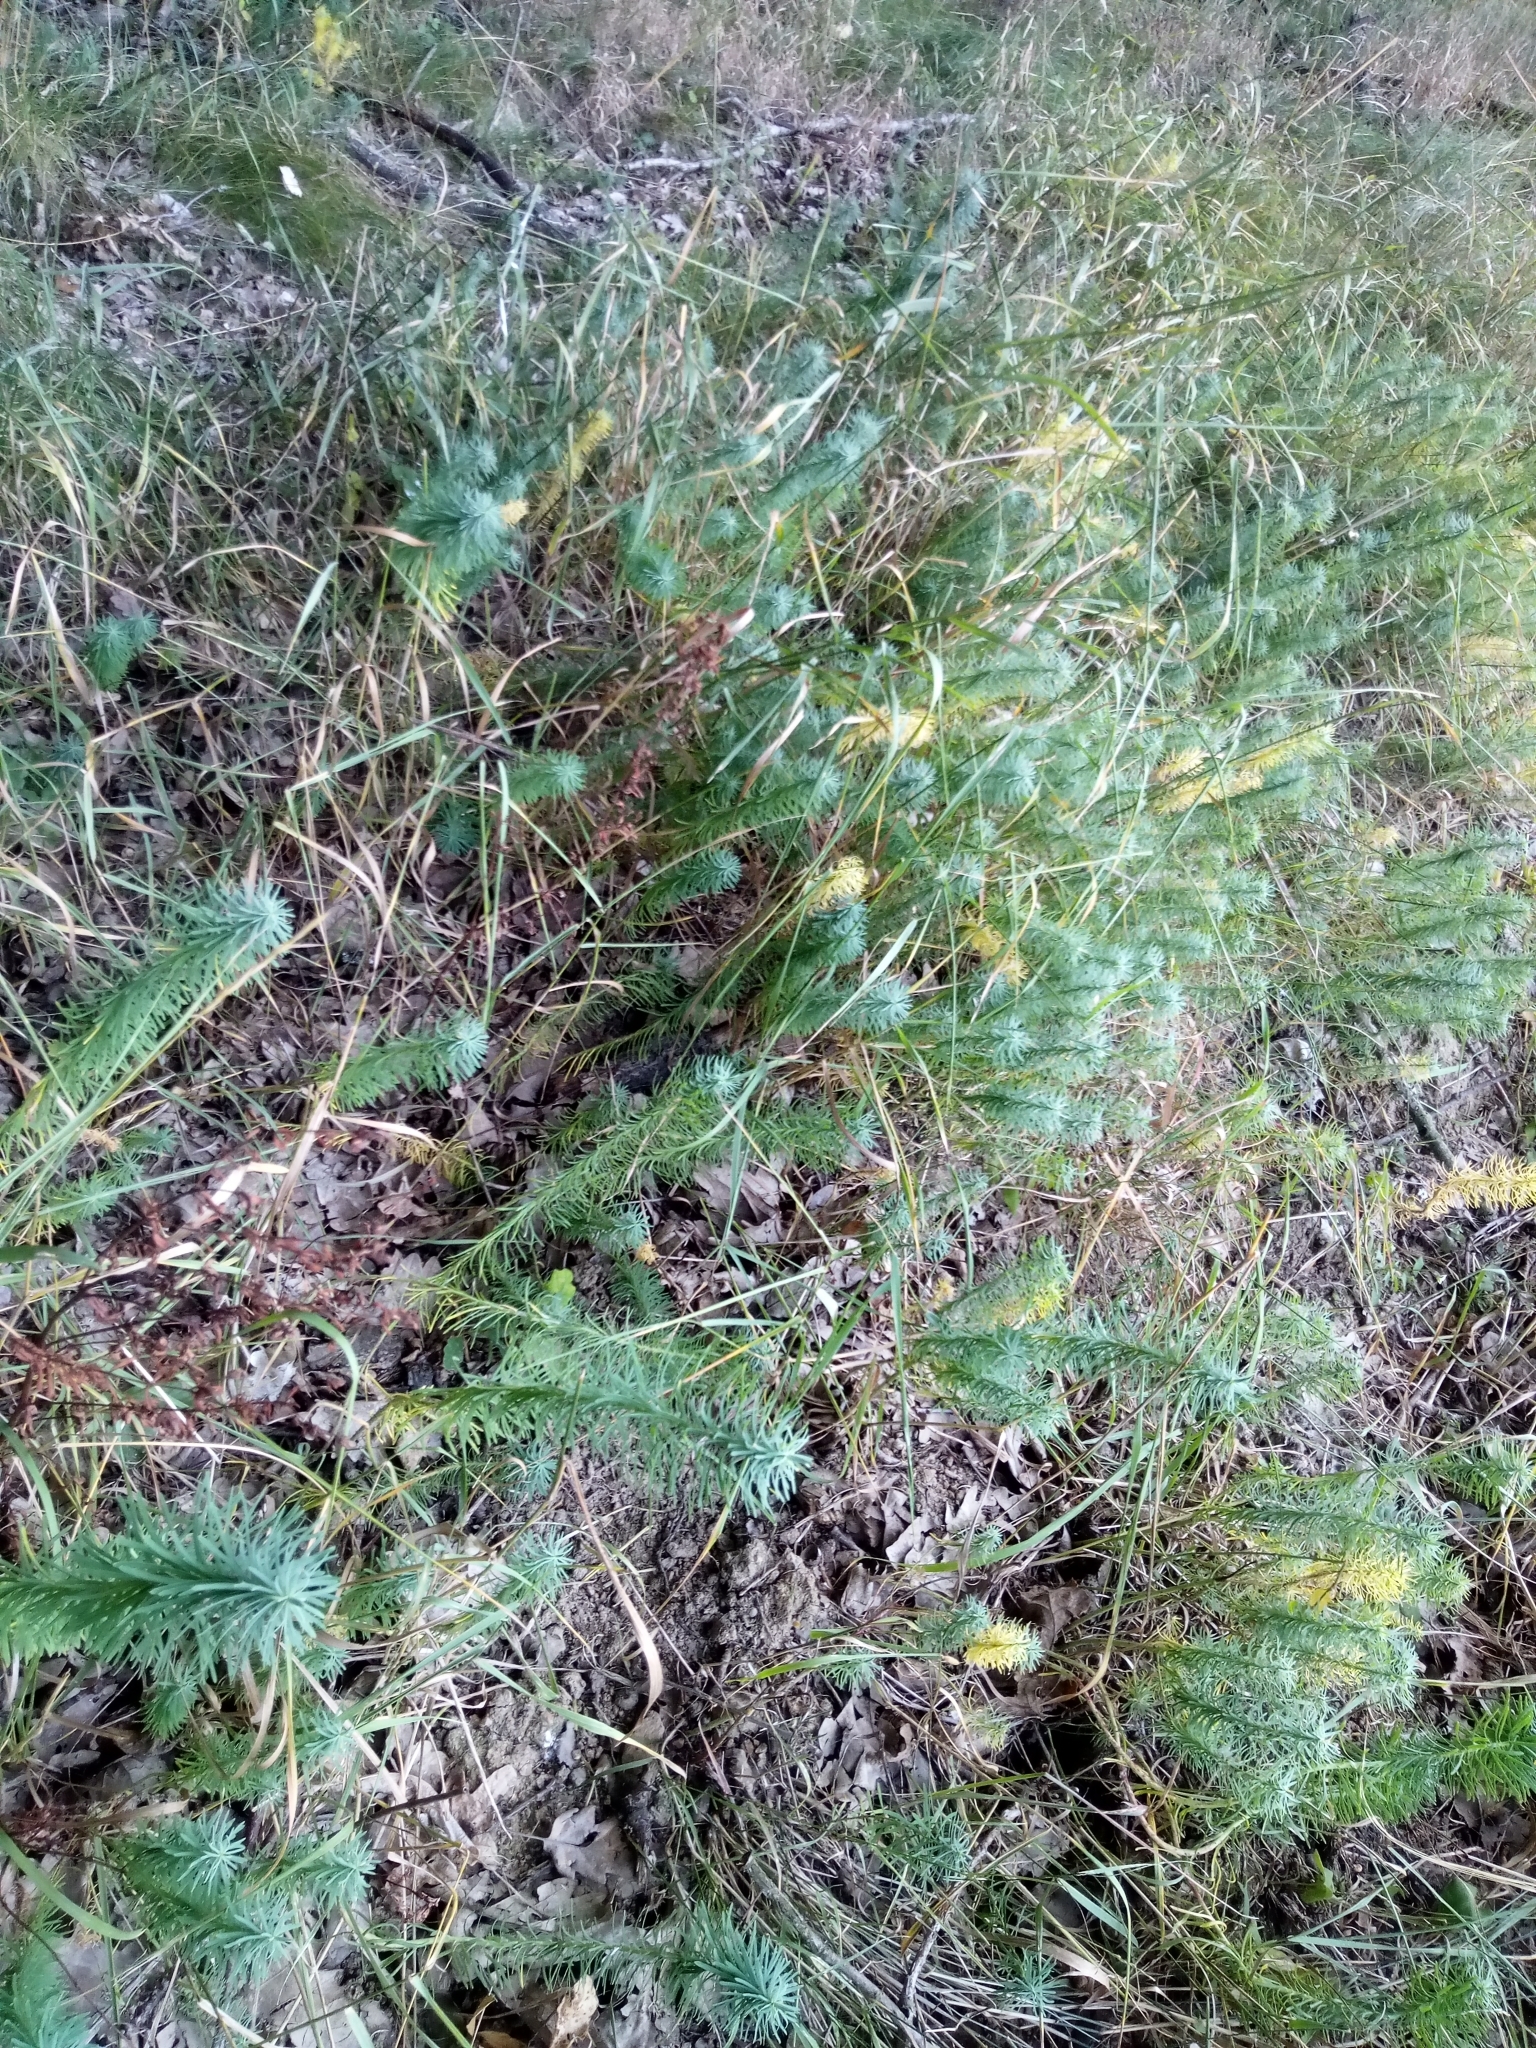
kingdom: Plantae
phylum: Tracheophyta
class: Magnoliopsida
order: Malpighiales
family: Euphorbiaceae
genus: Euphorbia
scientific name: Euphorbia cyparissias
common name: Cypress spurge
